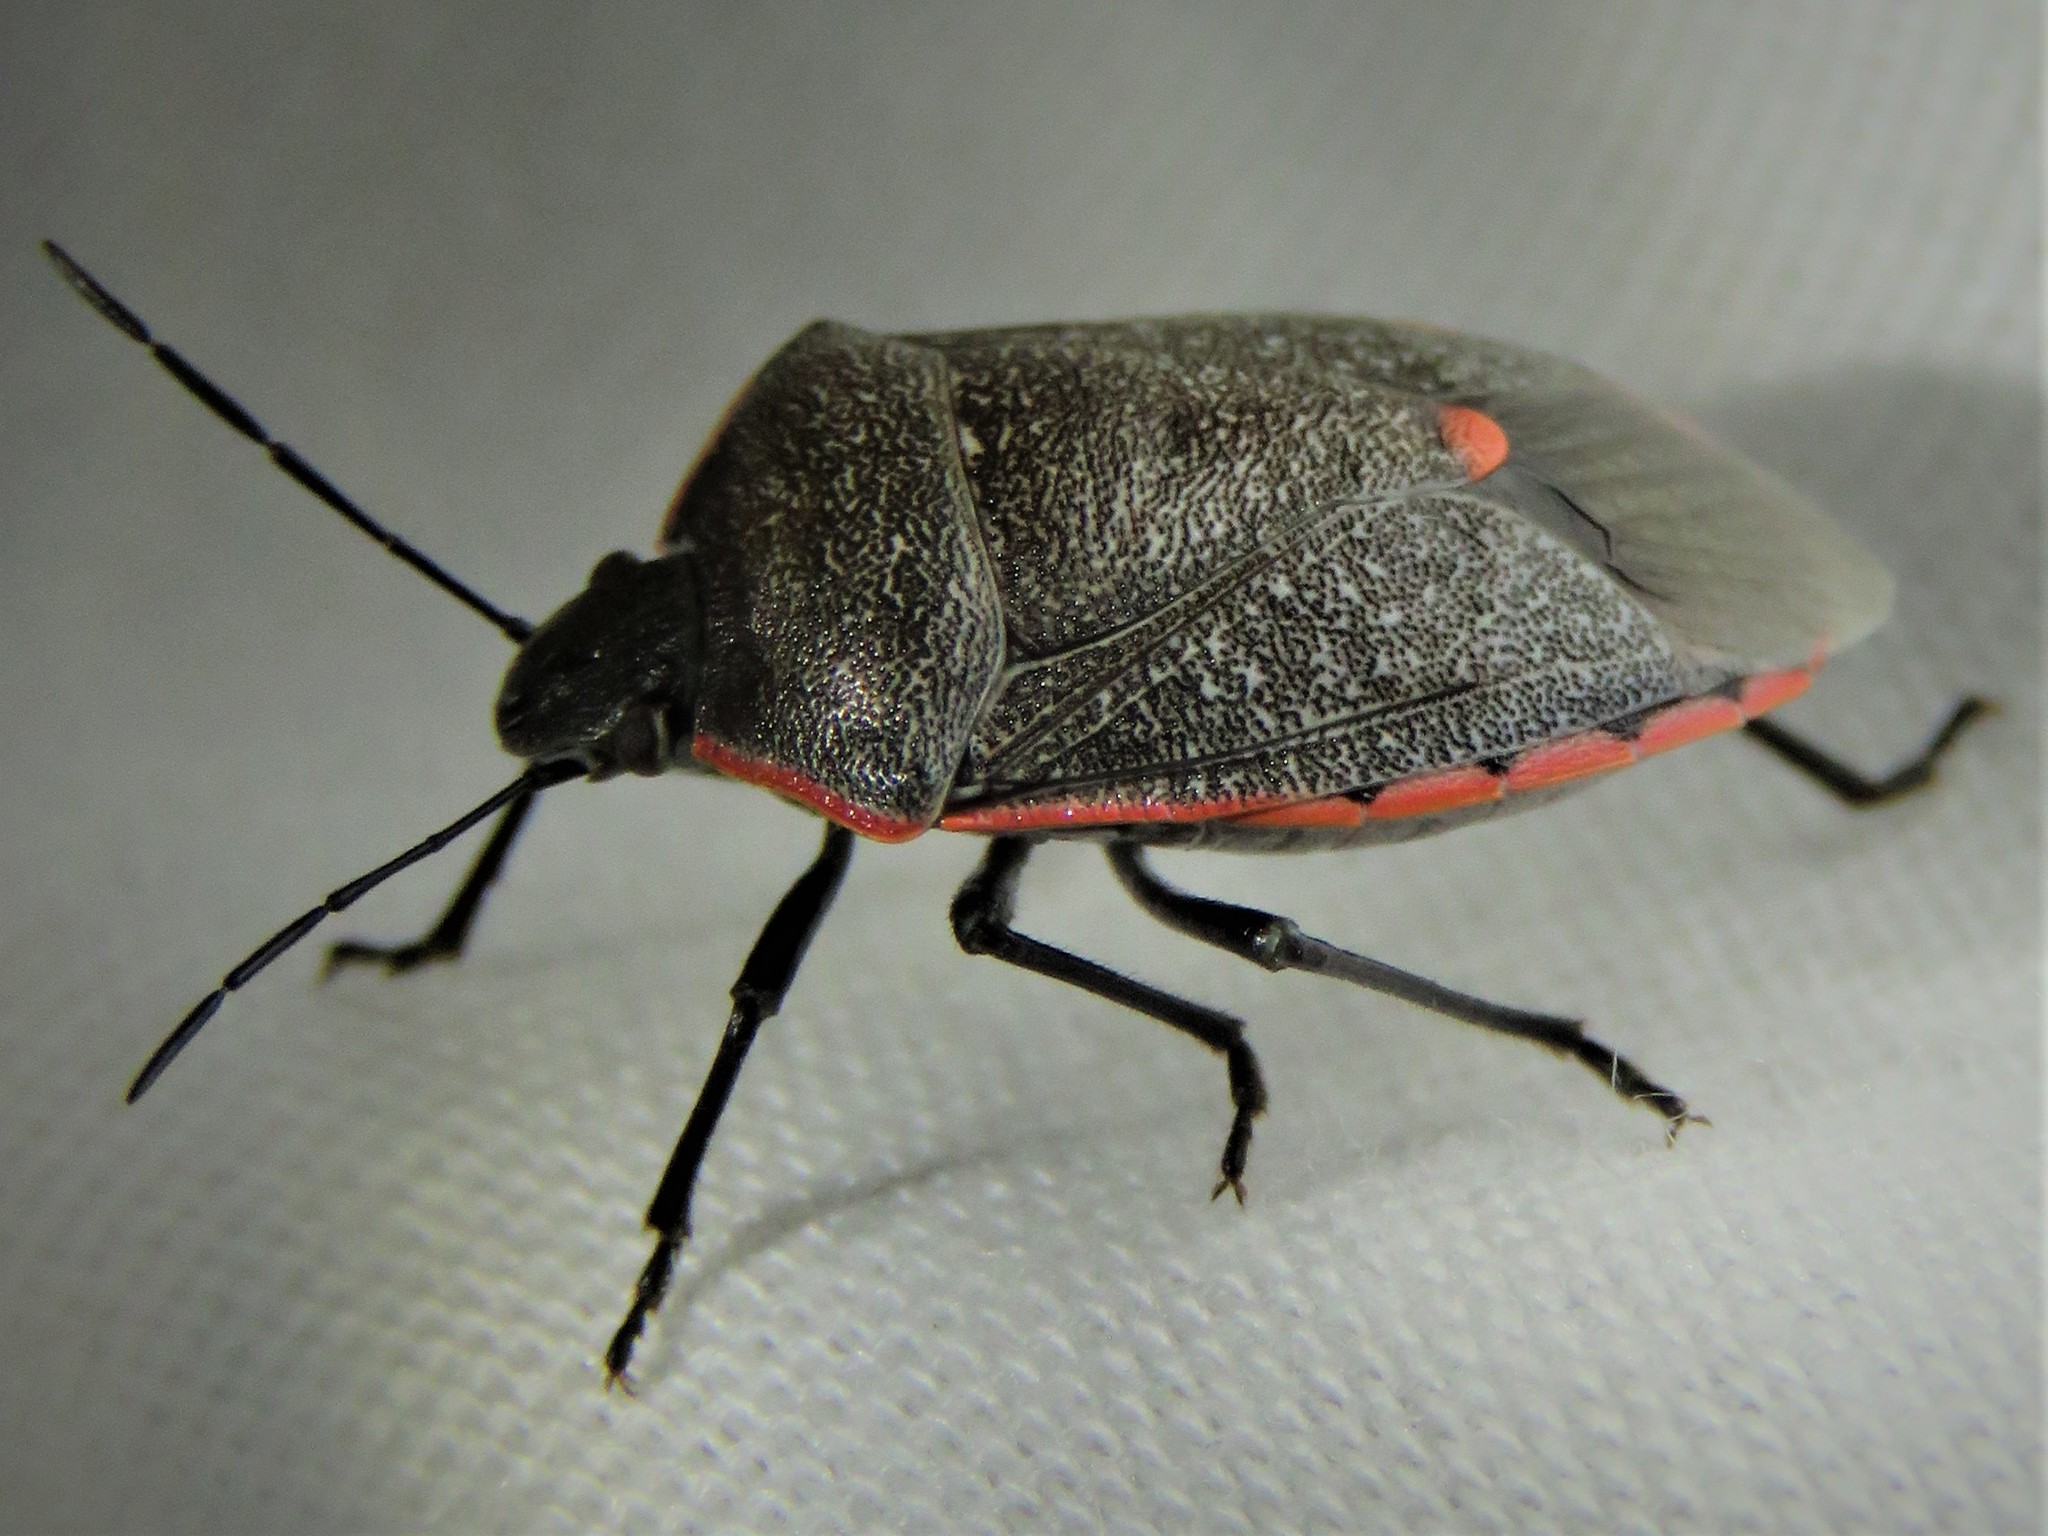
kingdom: Animalia
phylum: Arthropoda
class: Insecta
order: Hemiptera
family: Pentatomidae
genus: Chlorochroa
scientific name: Chlorochroa ligata
